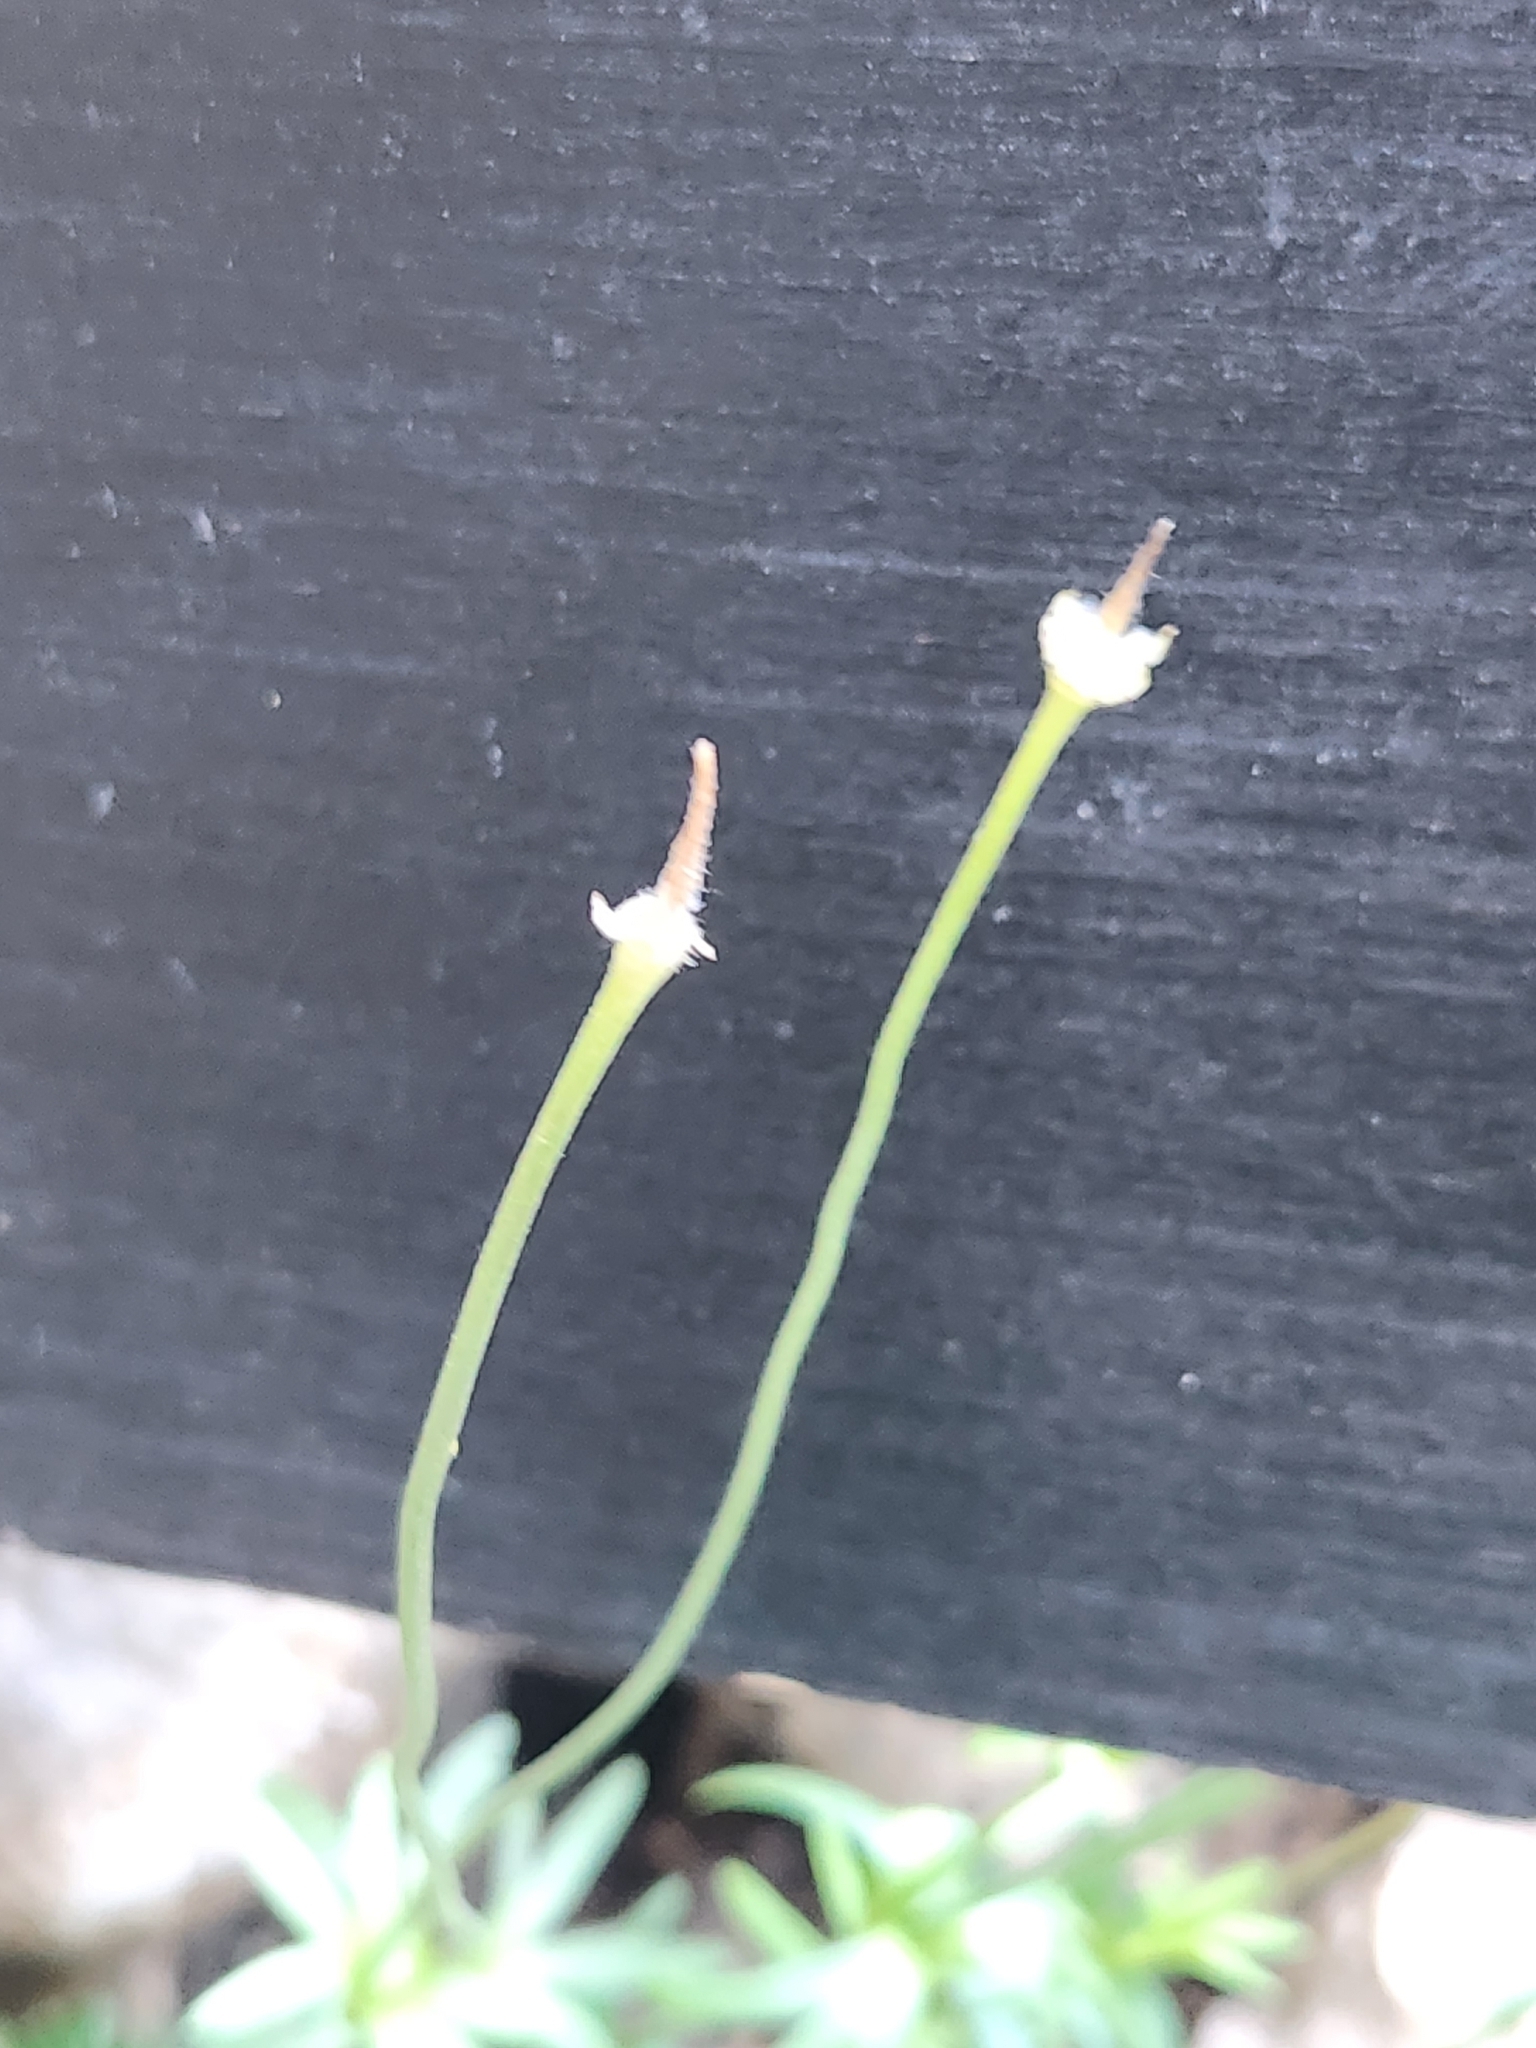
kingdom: Plantae
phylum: Tracheophyta
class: Magnoliopsida
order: Ranunculales
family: Ranunculaceae
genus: Anemone
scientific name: Anemone edwardsiana
